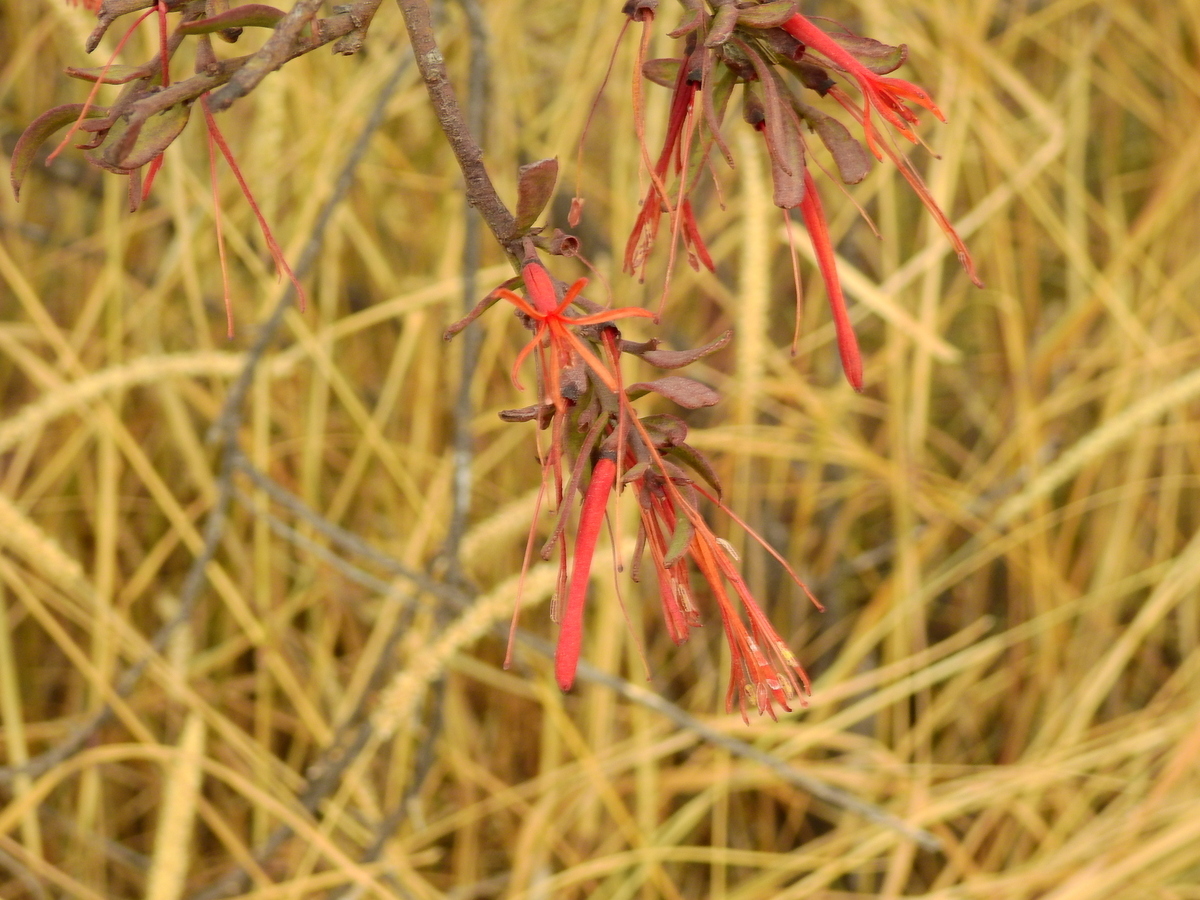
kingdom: Plantae
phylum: Tracheophyta
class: Magnoliopsida
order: Santalales
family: Loranthaceae
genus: Ligaria
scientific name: Ligaria cuneifolia
